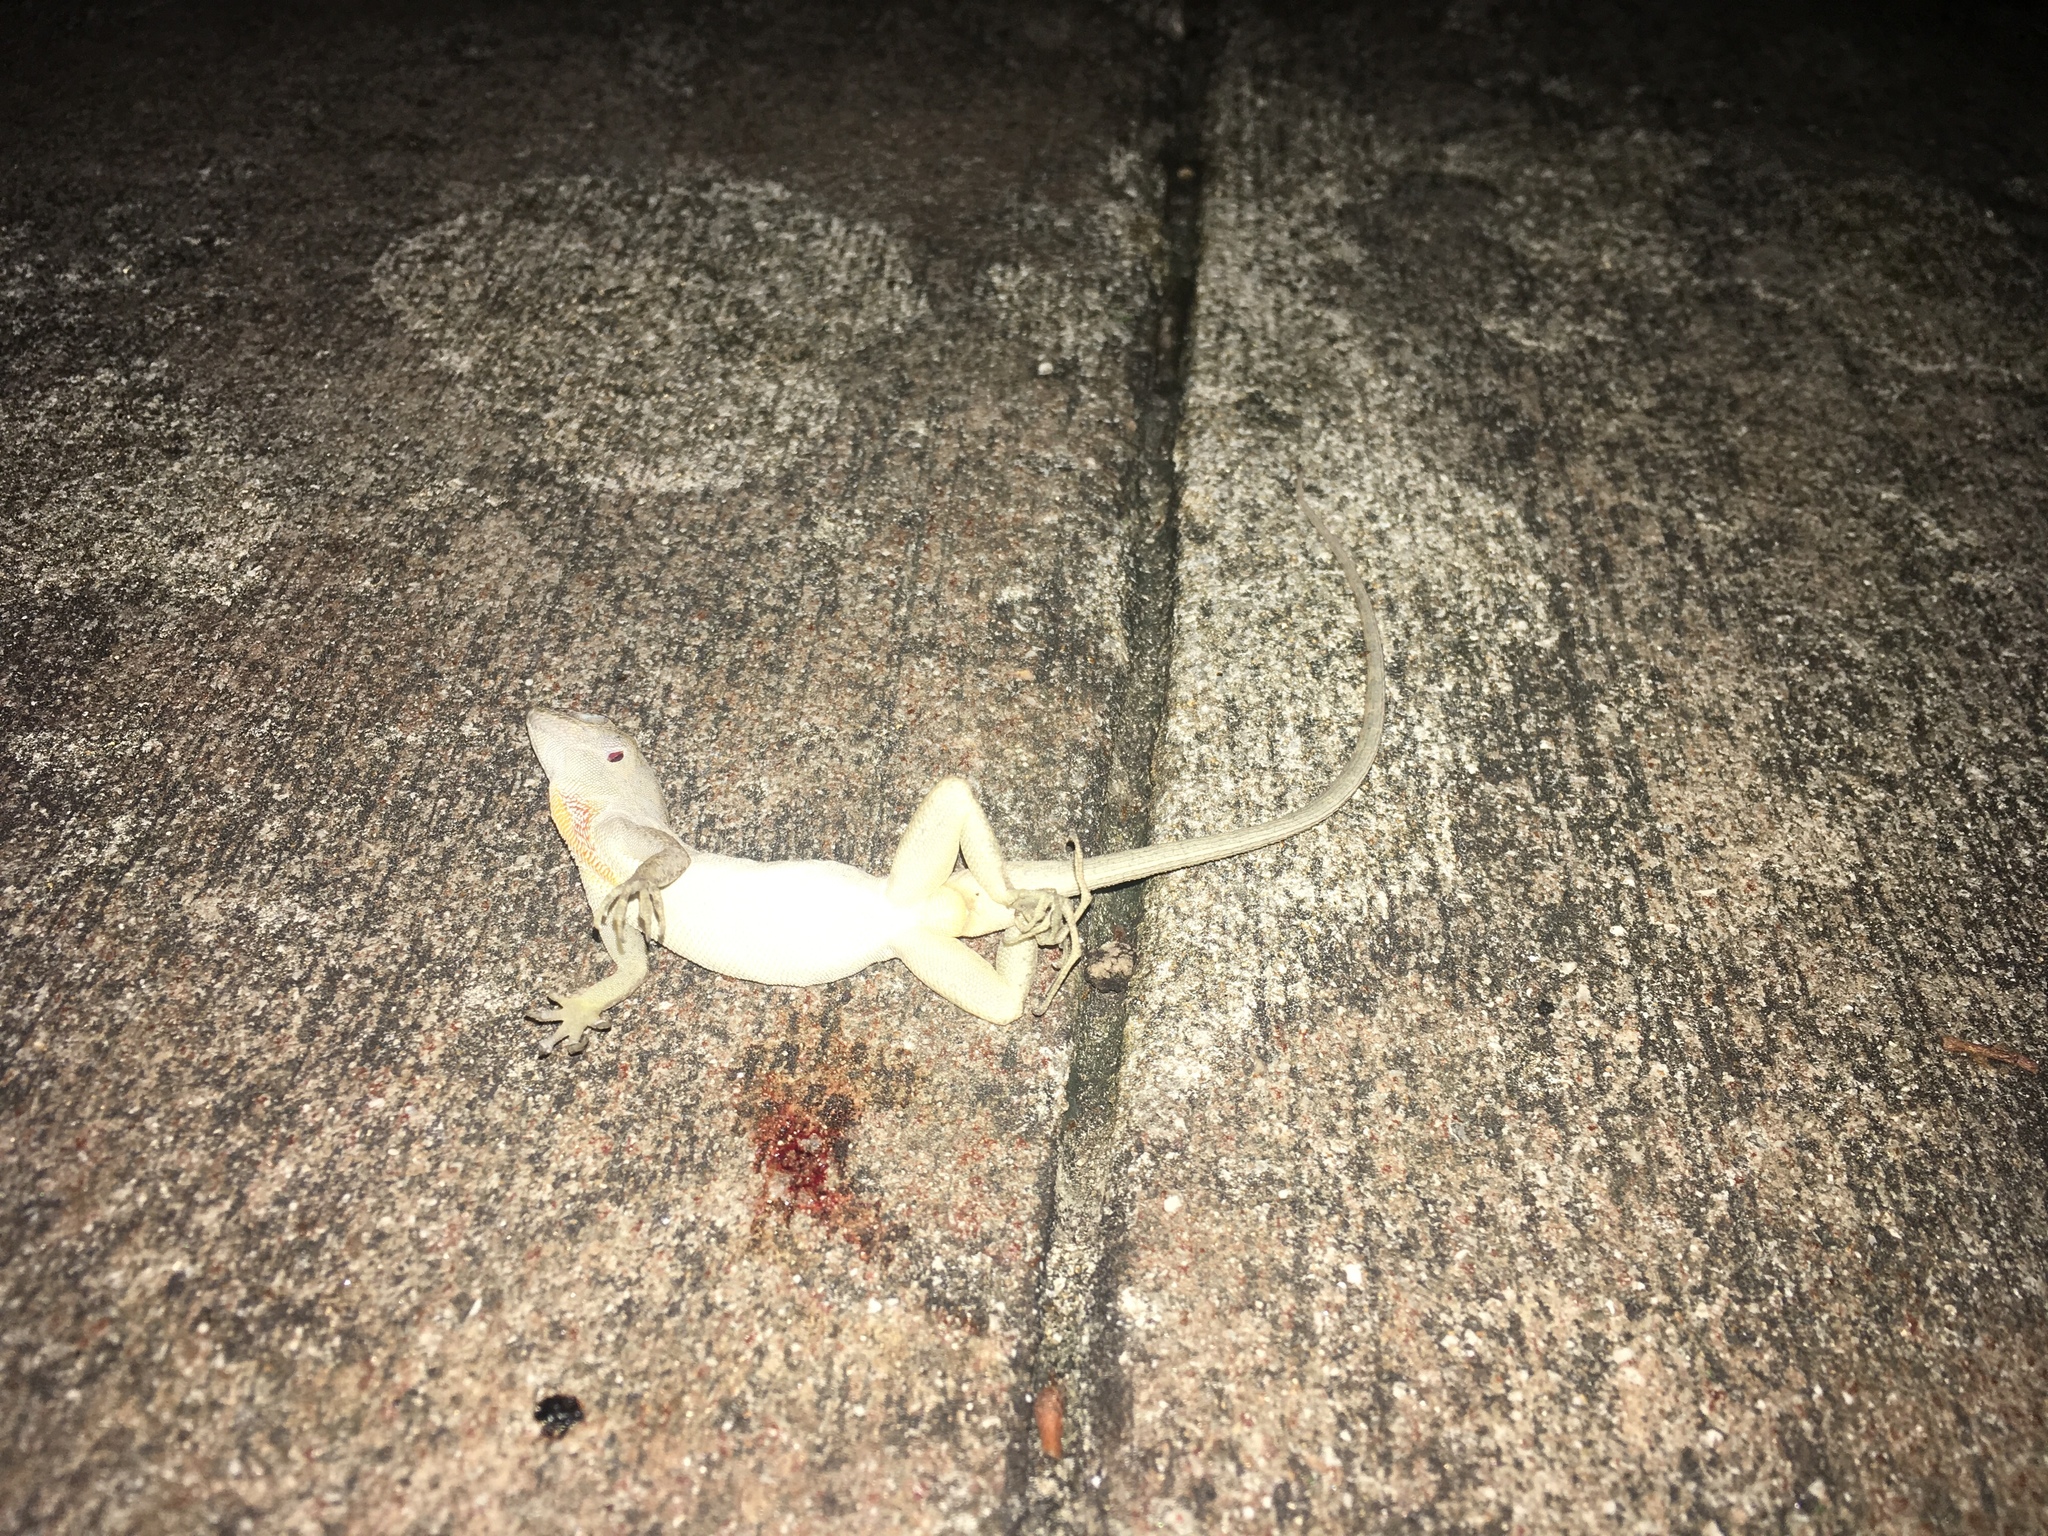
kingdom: Animalia
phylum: Chordata
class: Squamata
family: Dactyloidae
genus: Anolis
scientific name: Anolis sagrei
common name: Brown anole
